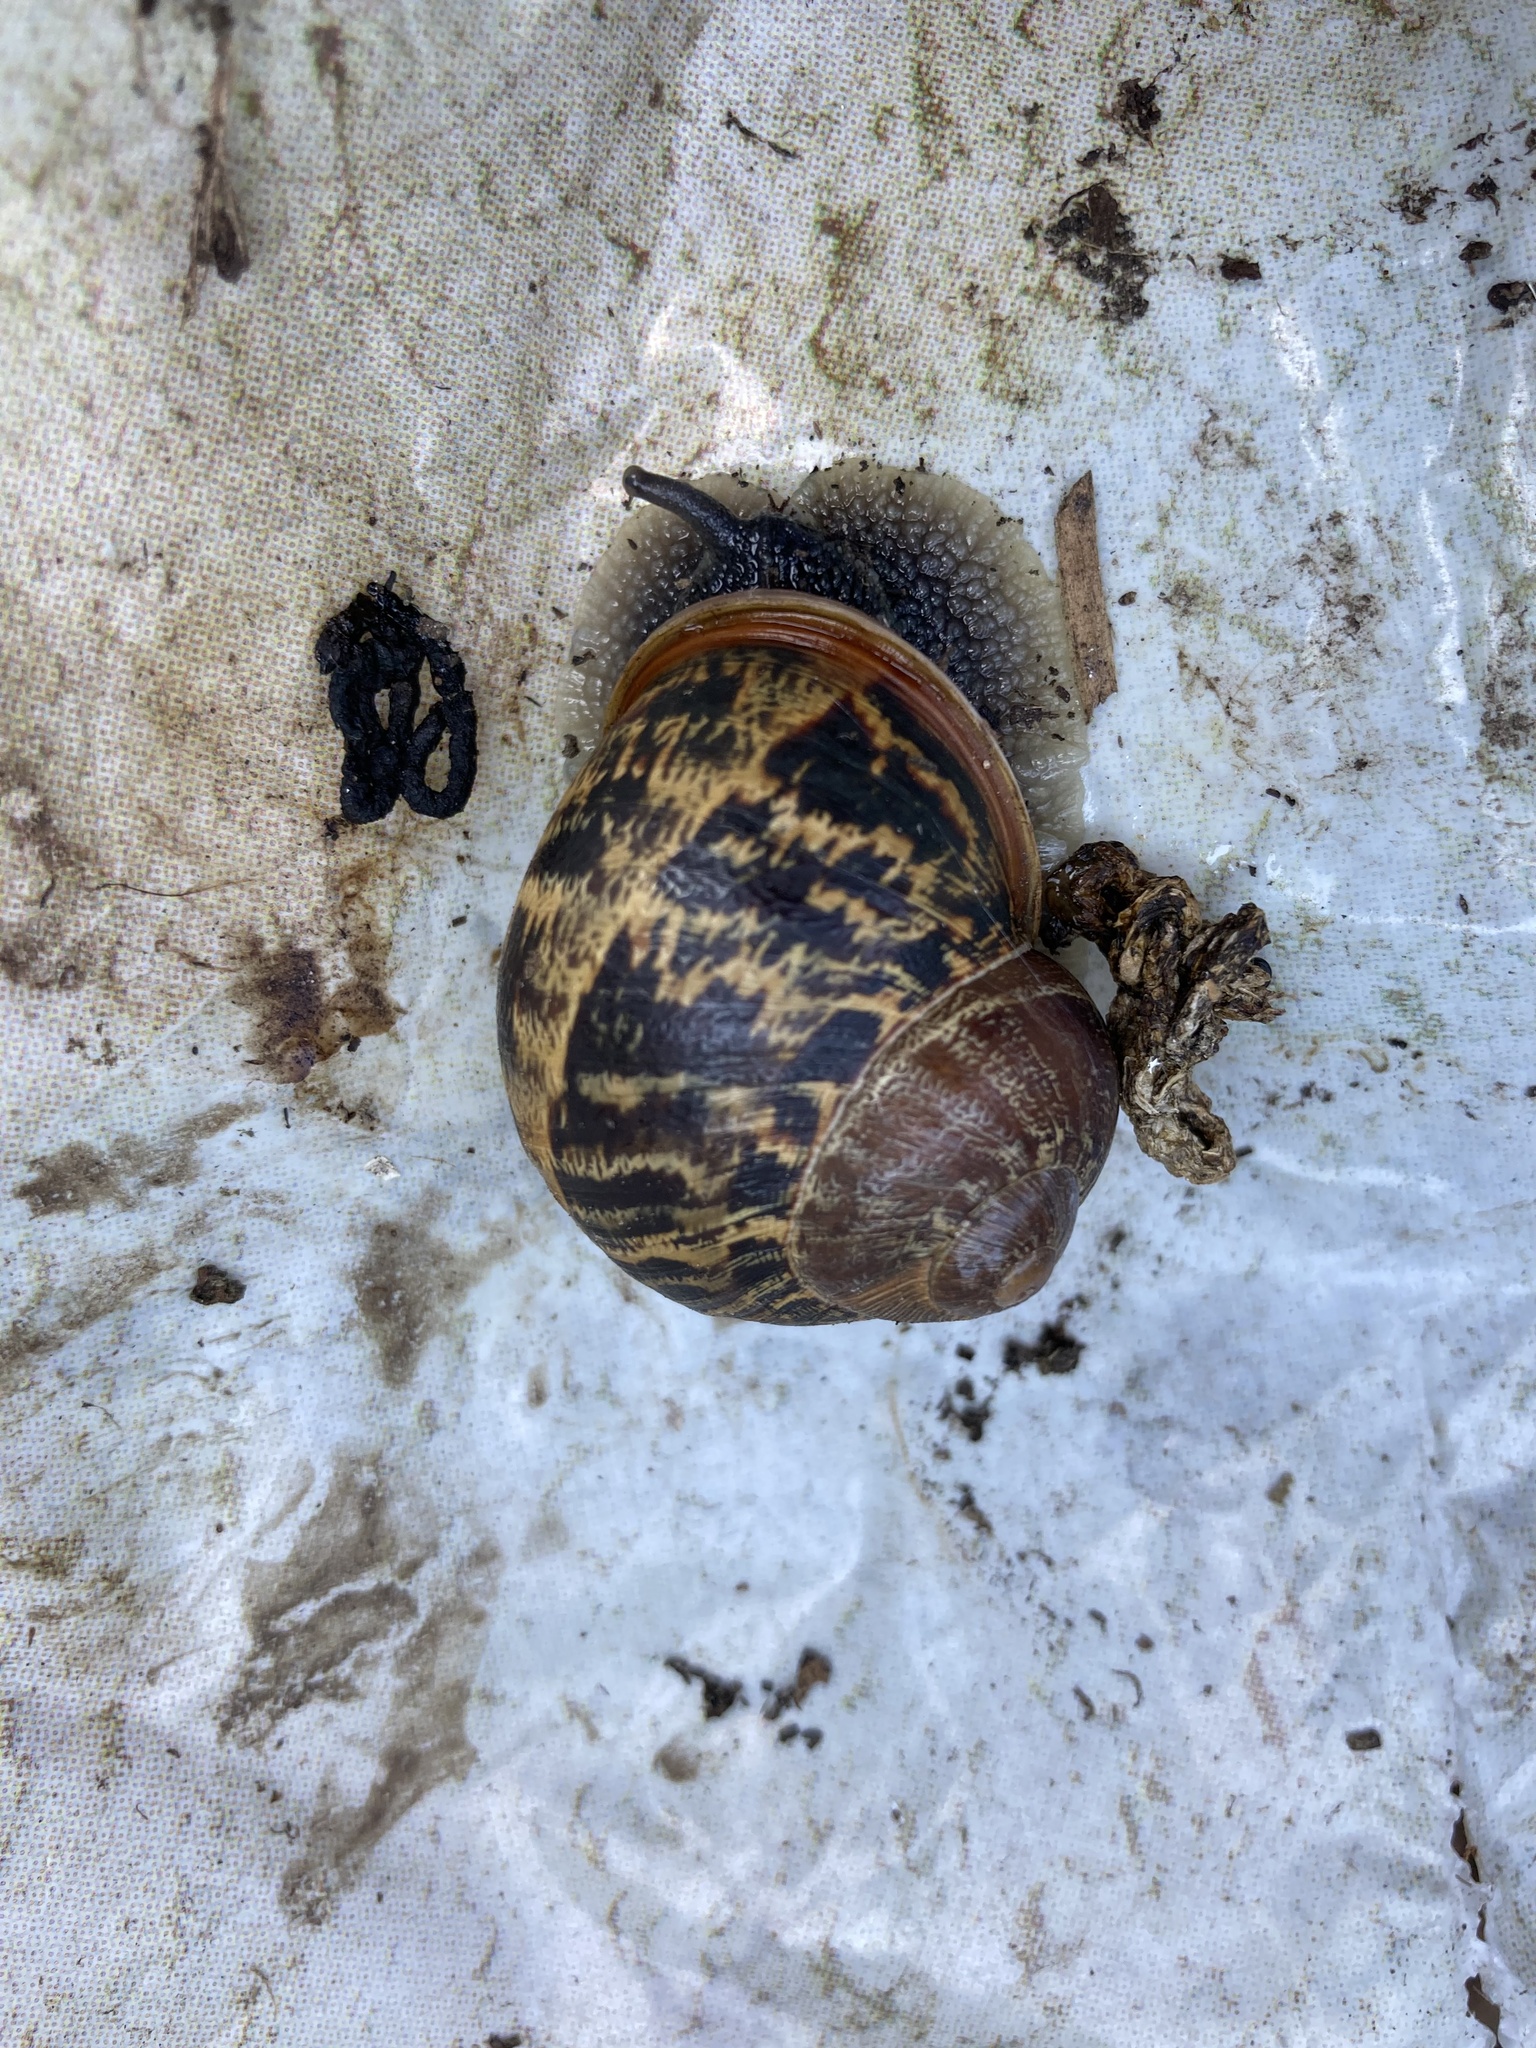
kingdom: Animalia
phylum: Mollusca
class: Gastropoda
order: Stylommatophora
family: Helicidae
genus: Cornu
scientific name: Cornu aspersum
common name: Brown garden snail
